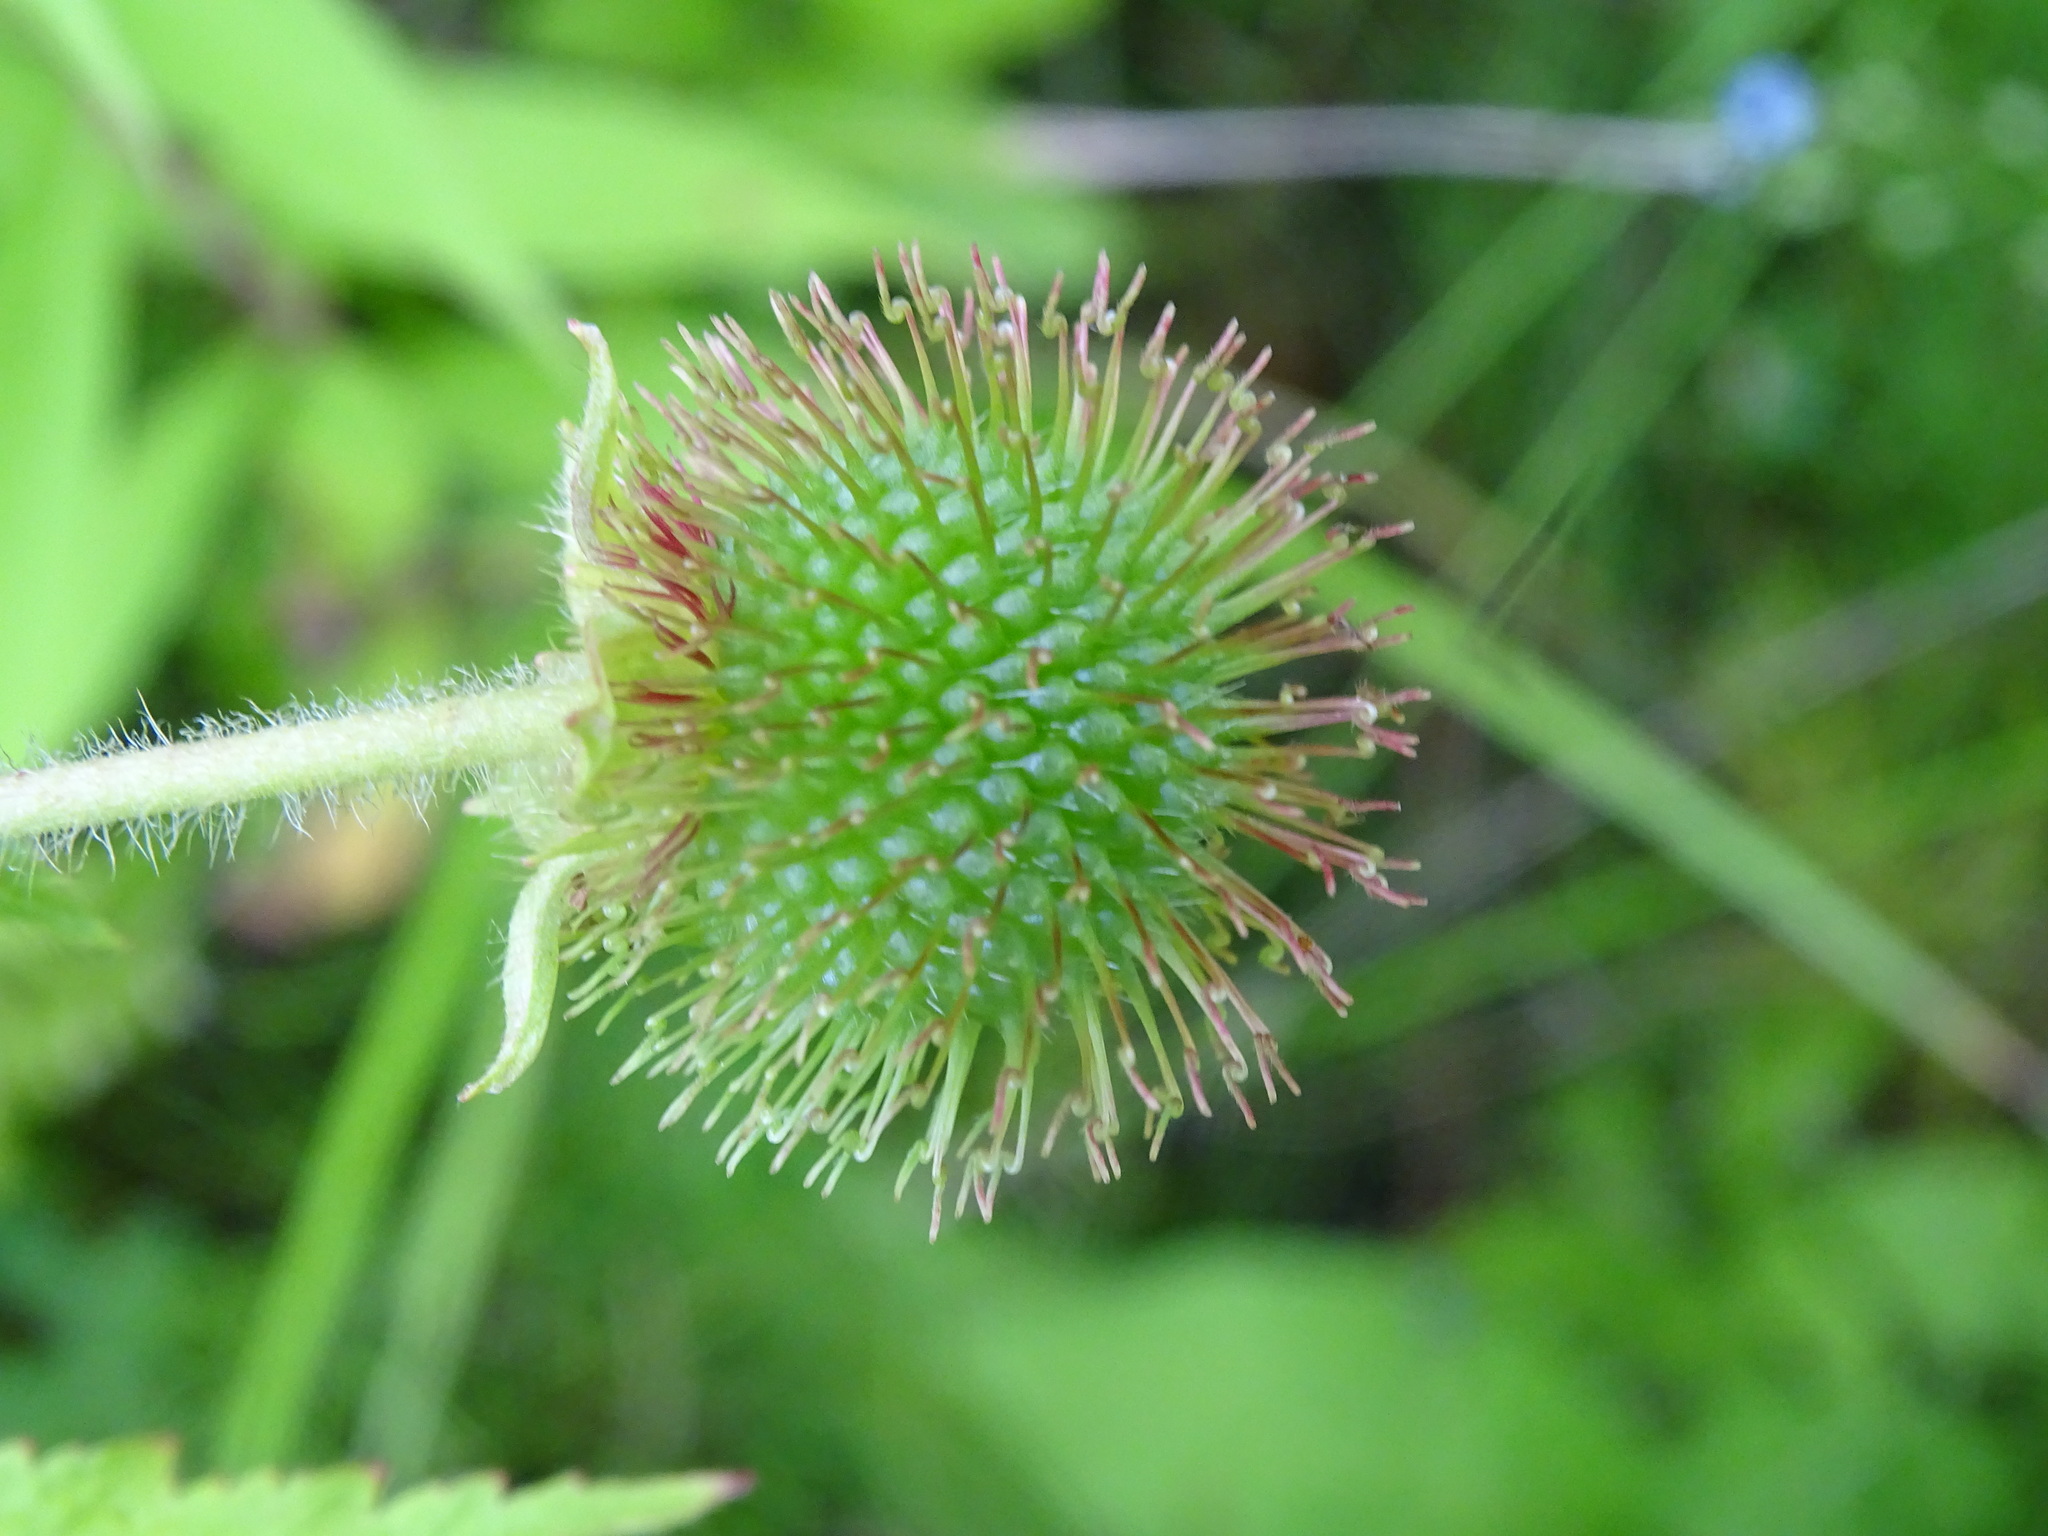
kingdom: Plantae
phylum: Tracheophyta
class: Magnoliopsida
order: Rosales
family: Rosaceae
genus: Geum
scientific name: Geum laciniatum
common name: Rough avens
